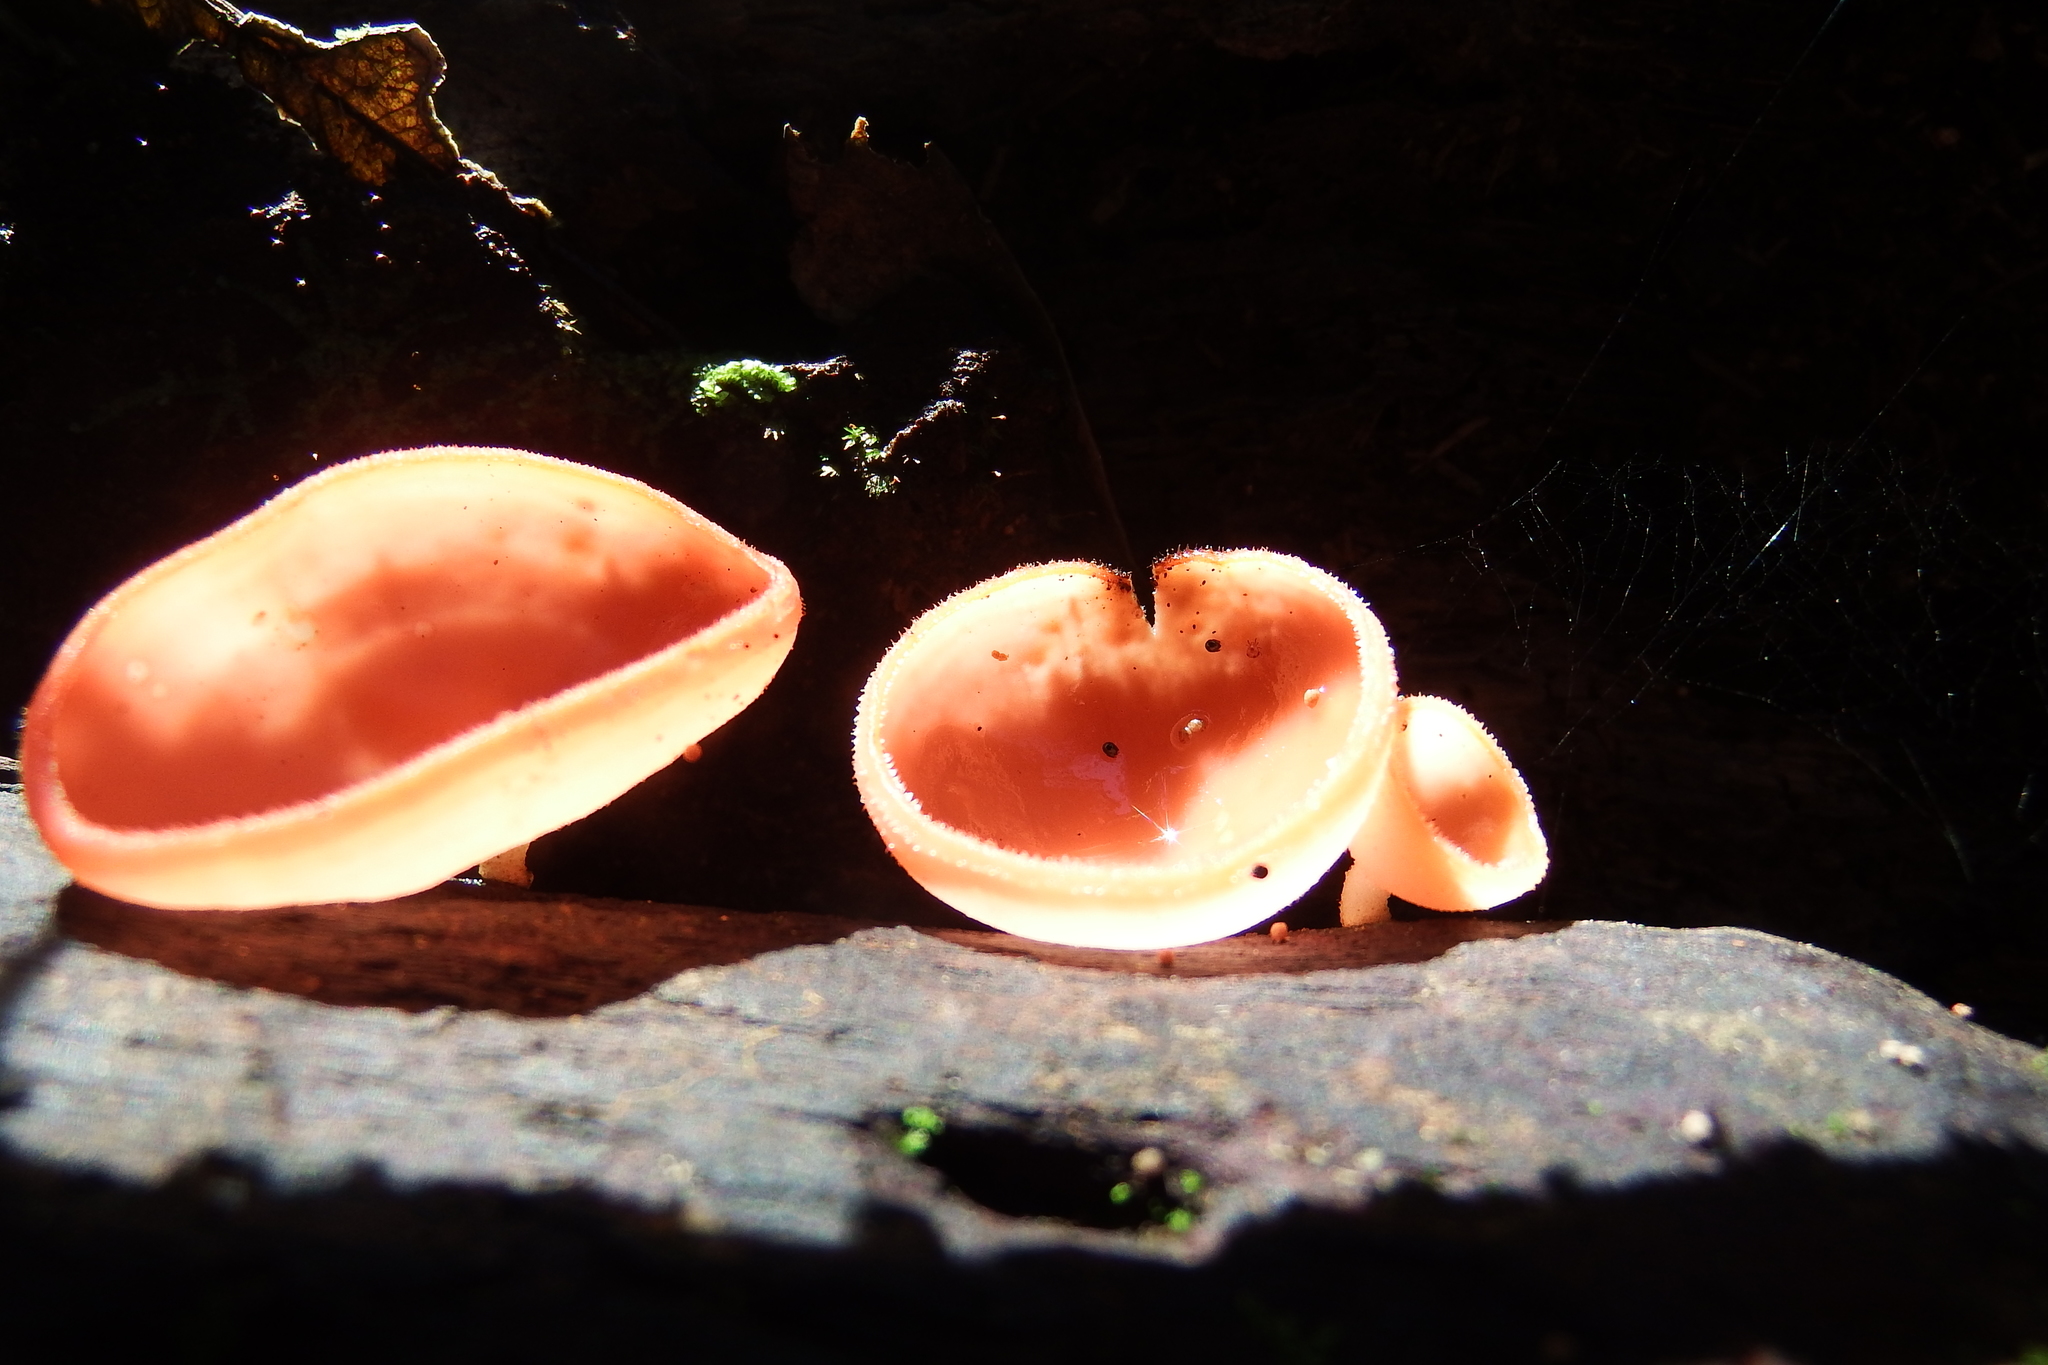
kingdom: Fungi
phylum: Ascomycota
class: Pezizomycetes
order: Pezizales
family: Sarcoscyphaceae
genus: Cookeina
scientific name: Cookeina speciosa
